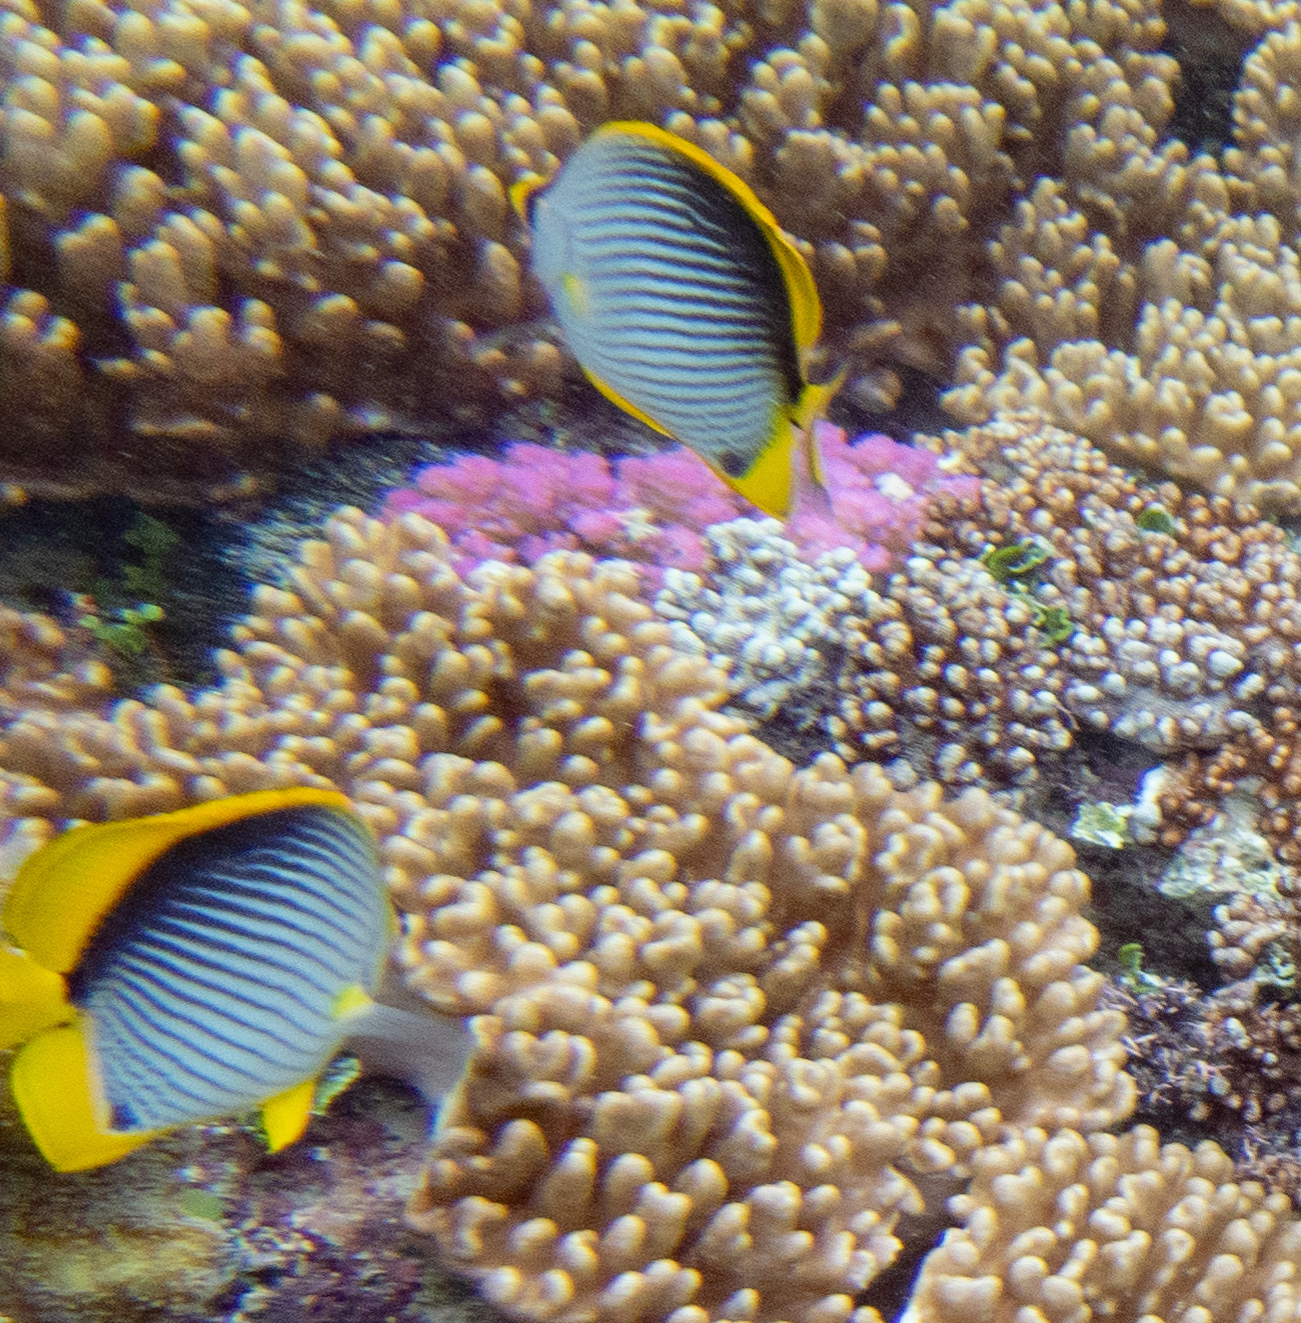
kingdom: Animalia
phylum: Chordata
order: Perciformes
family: Chaetodontidae
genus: Chaetodon
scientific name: Chaetodon melannotus
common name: Blackback butterflyfish
